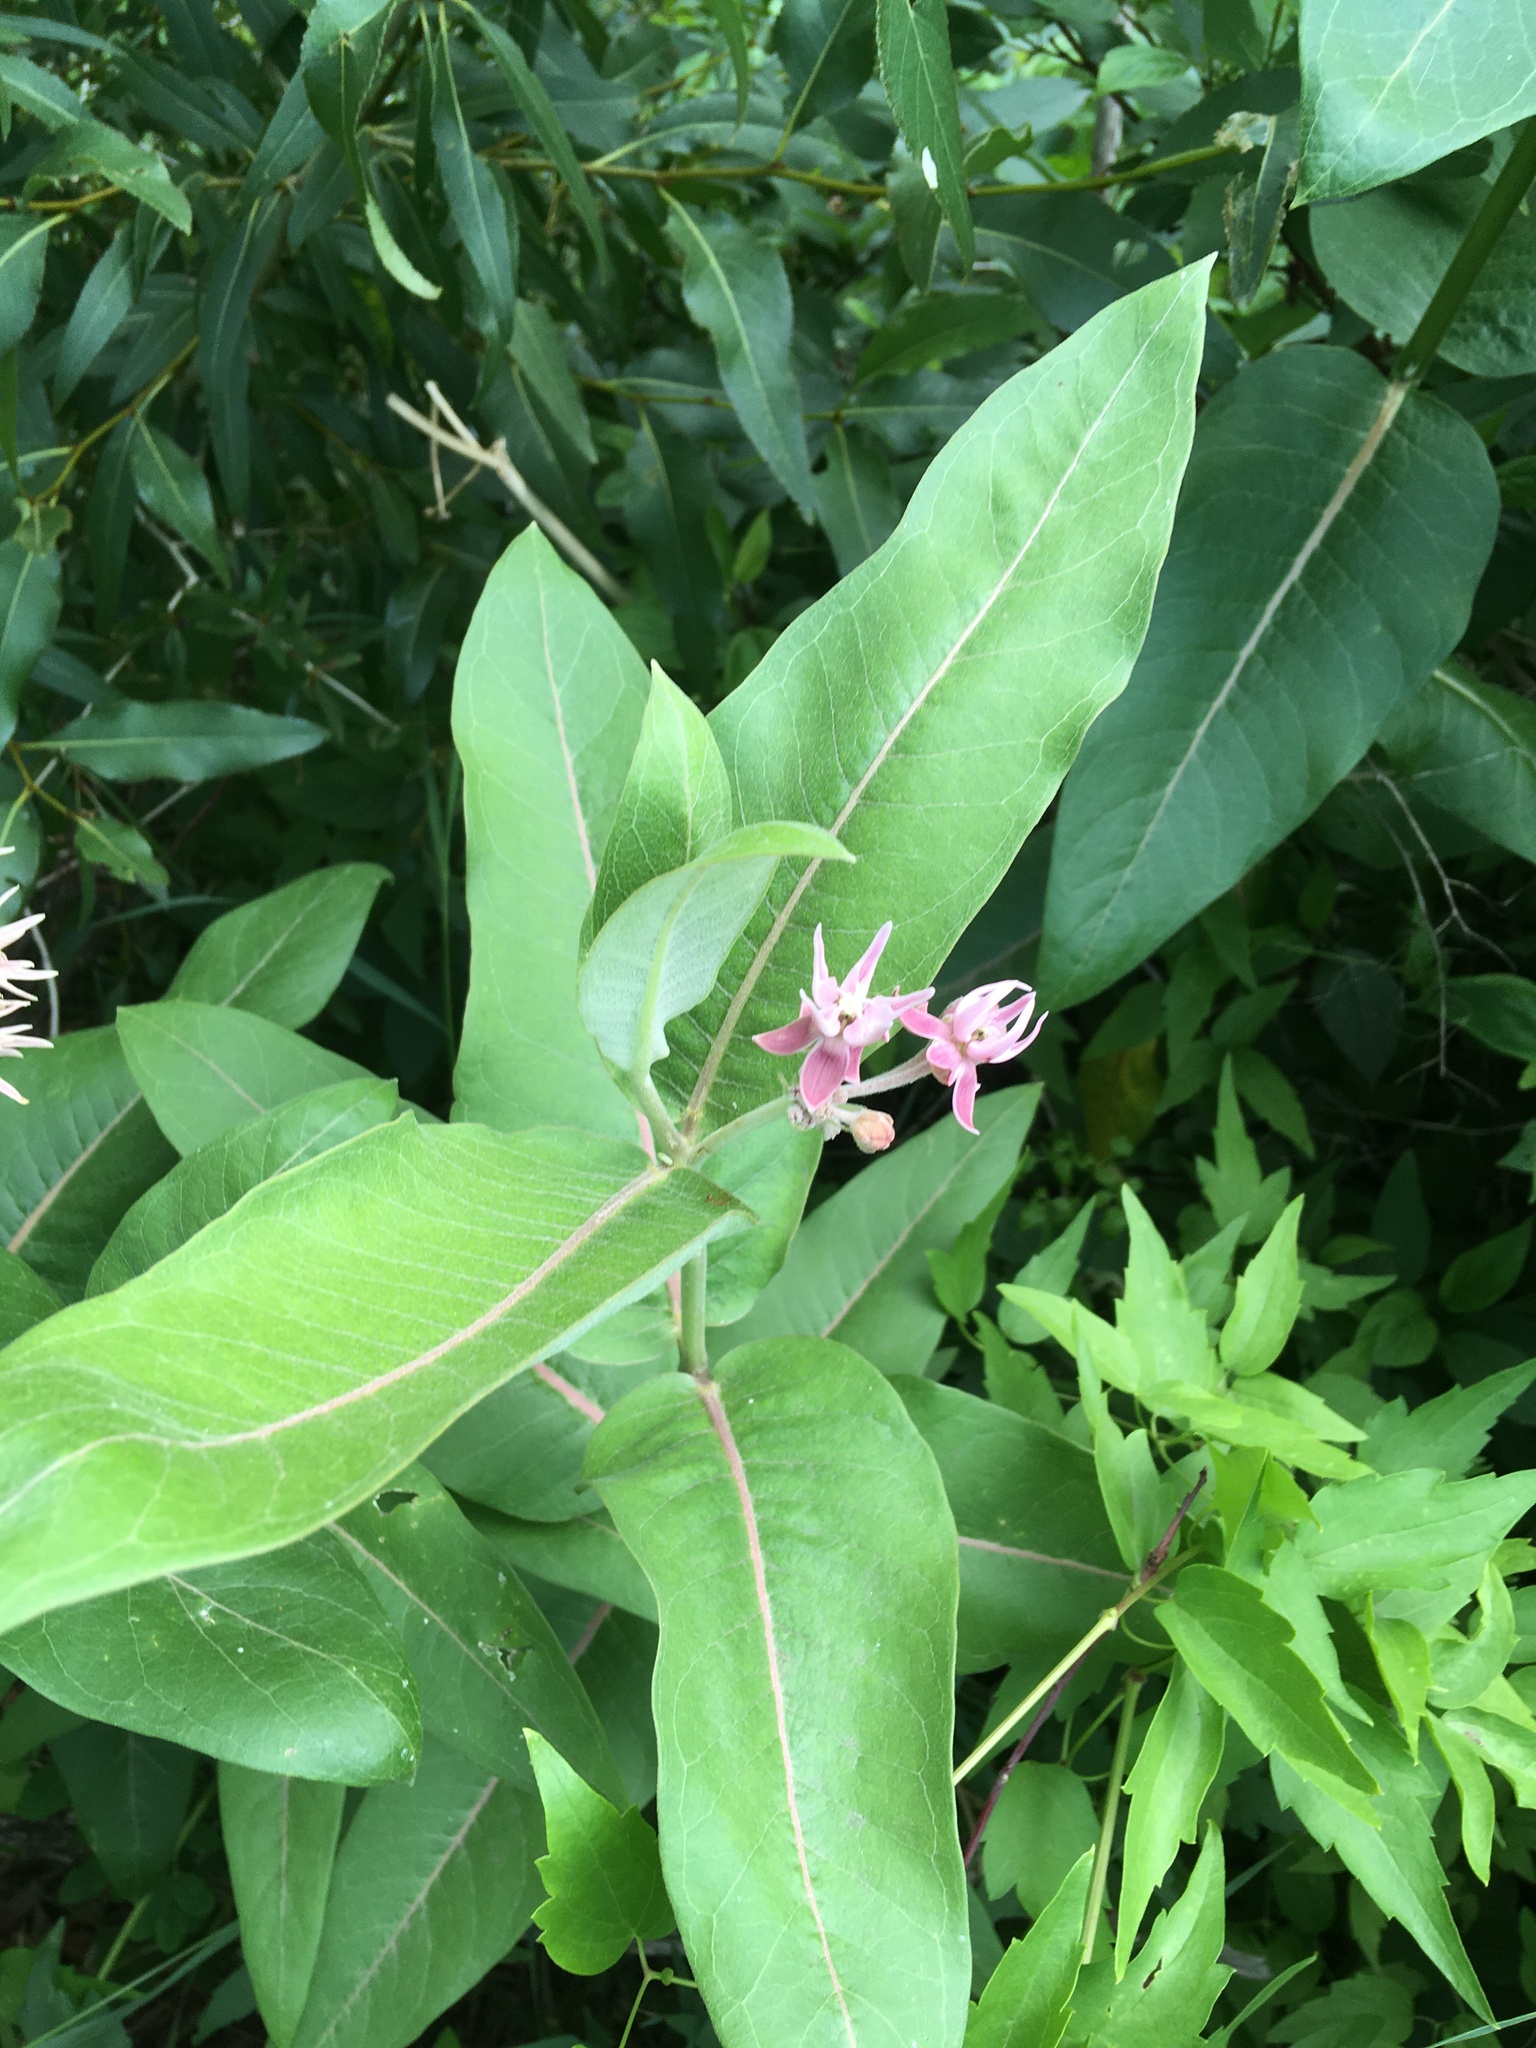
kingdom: Plantae
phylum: Tracheophyta
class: Magnoliopsida
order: Gentianales
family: Apocynaceae
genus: Asclepias
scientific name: Asclepias speciosa
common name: Showy milkweed
